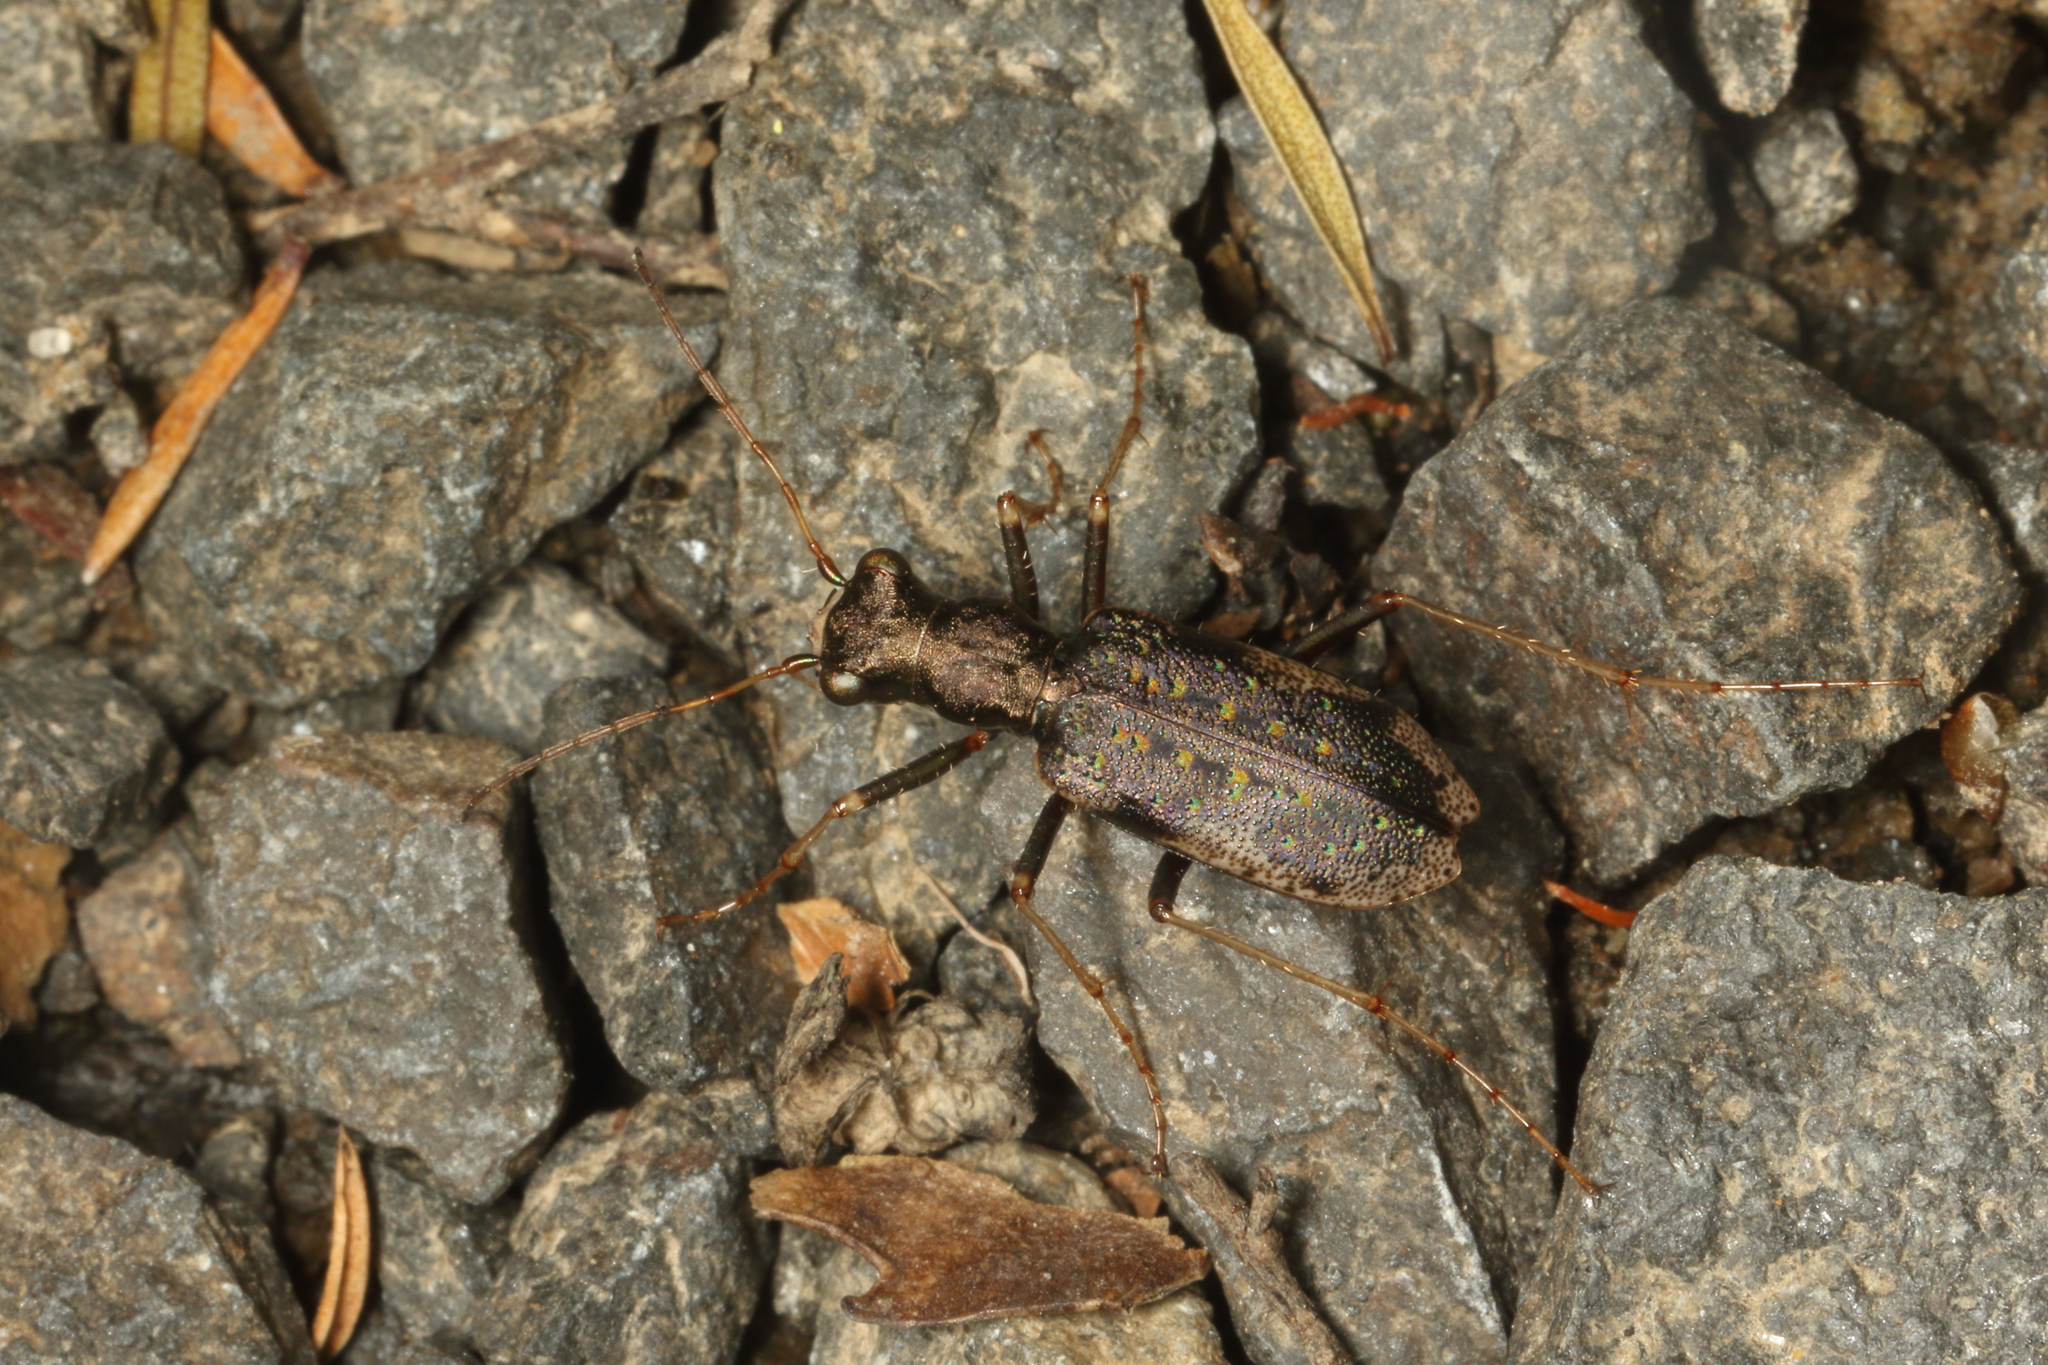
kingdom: Animalia
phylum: Arthropoda
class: Insecta
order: Coleoptera
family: Carabidae
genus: Neocicindela
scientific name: Neocicindela spilleri
